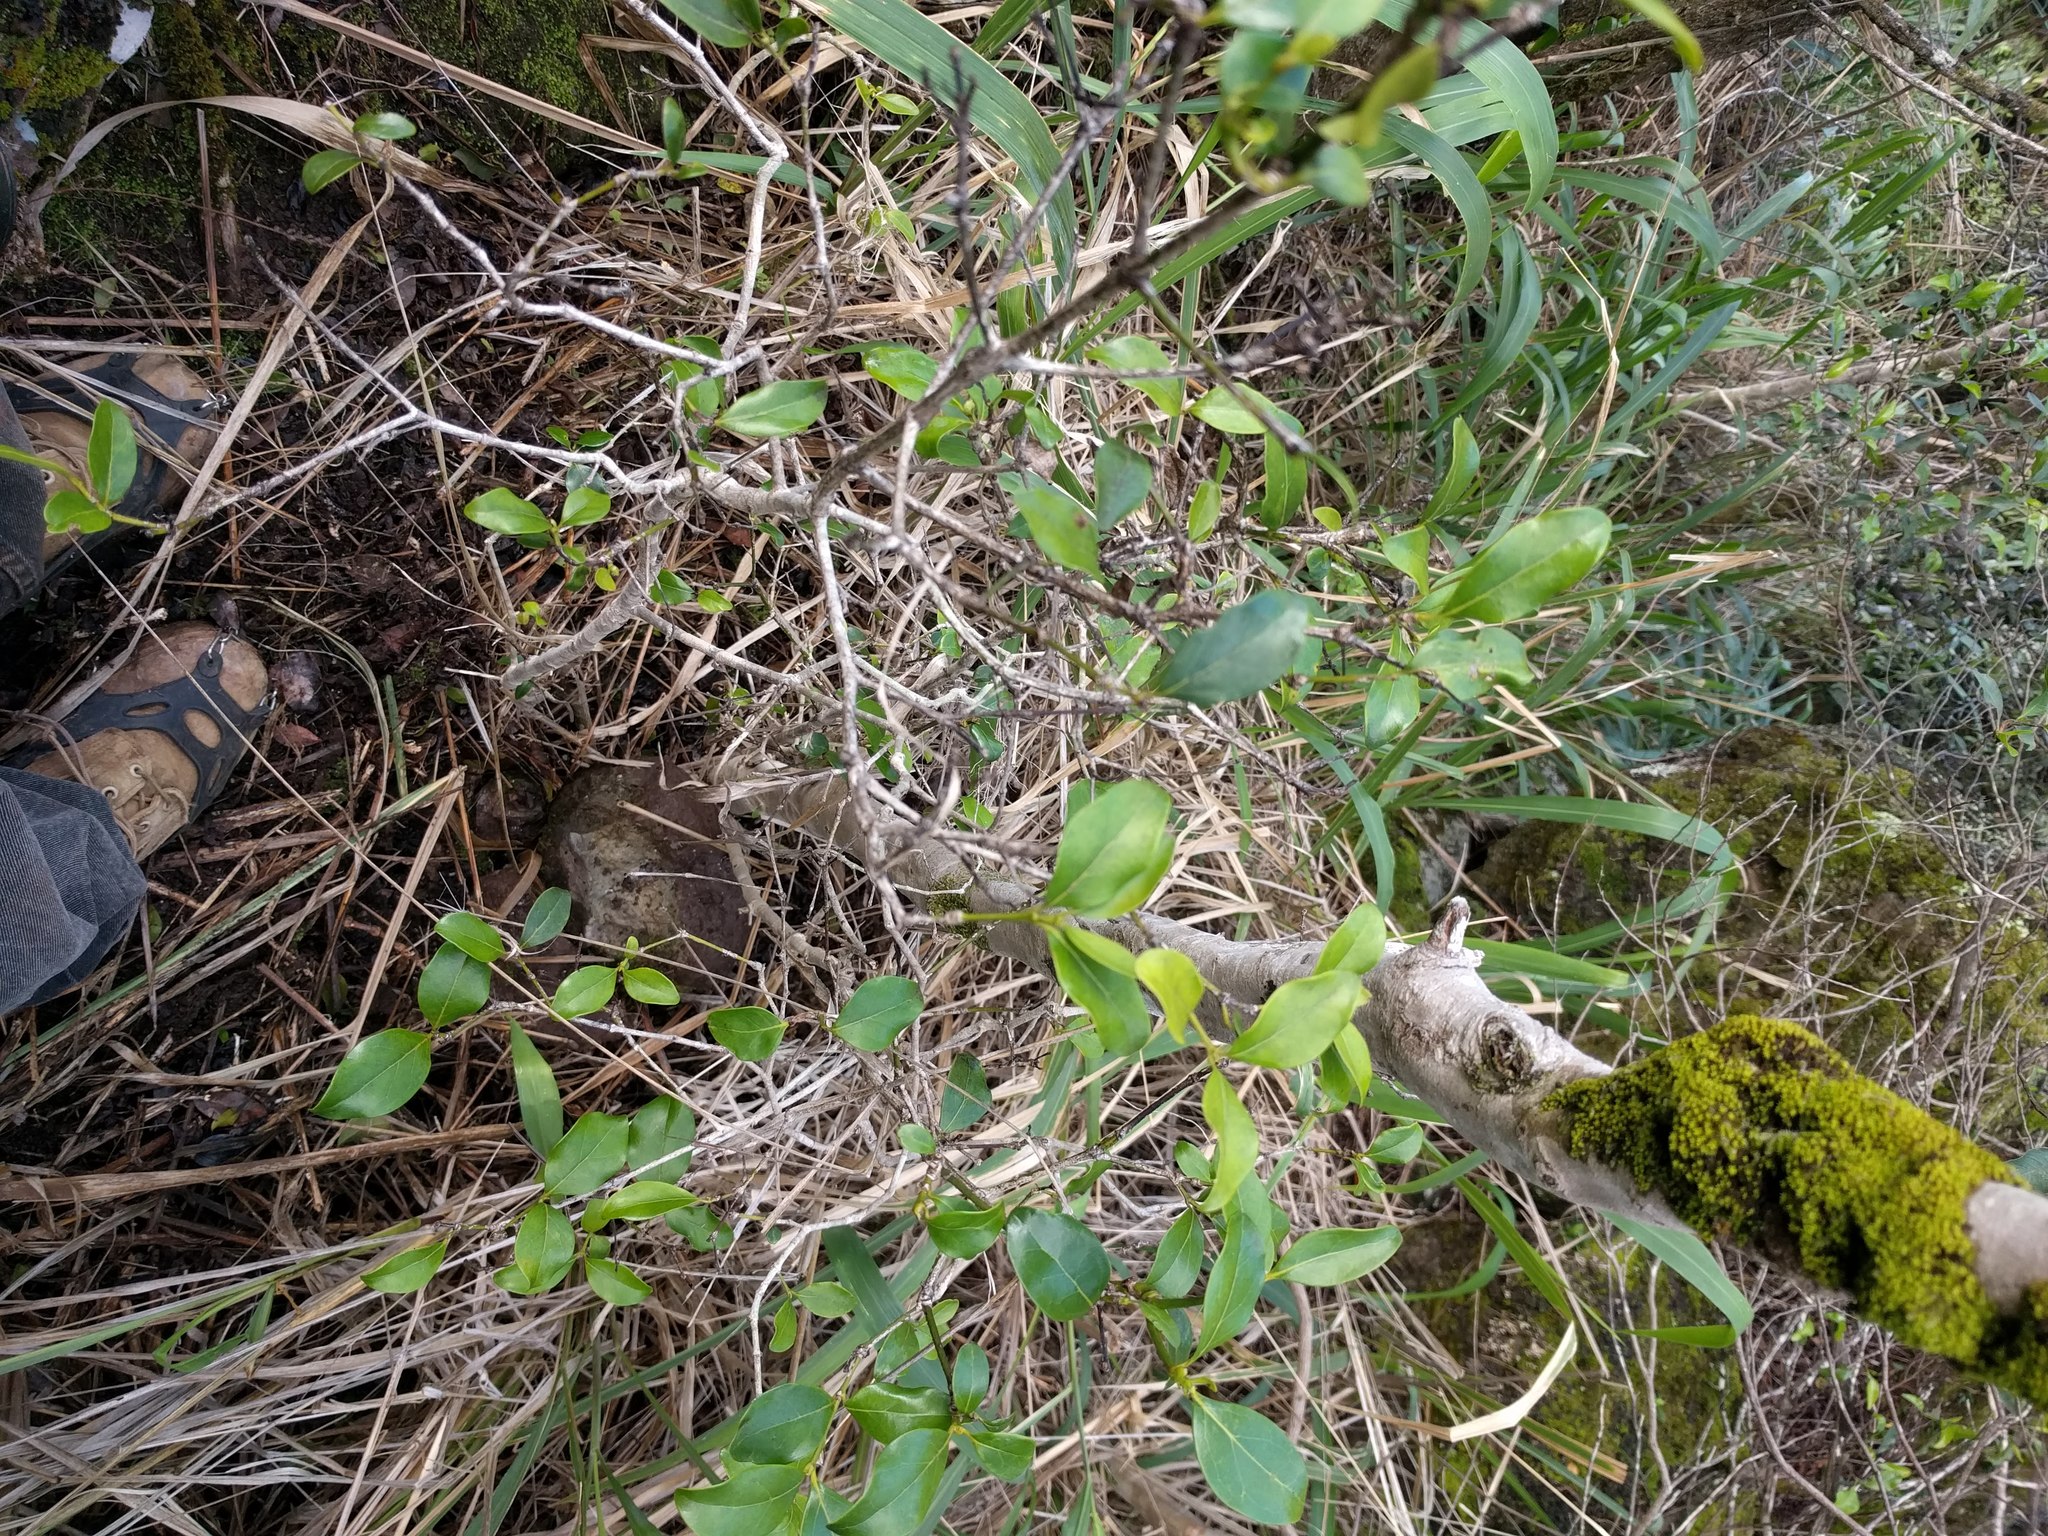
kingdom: Plantae
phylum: Tracheophyta
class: Magnoliopsida
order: Gentianales
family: Rubiaceae
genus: Psydrax
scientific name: Psydrax odoratus
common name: Alahe'e
